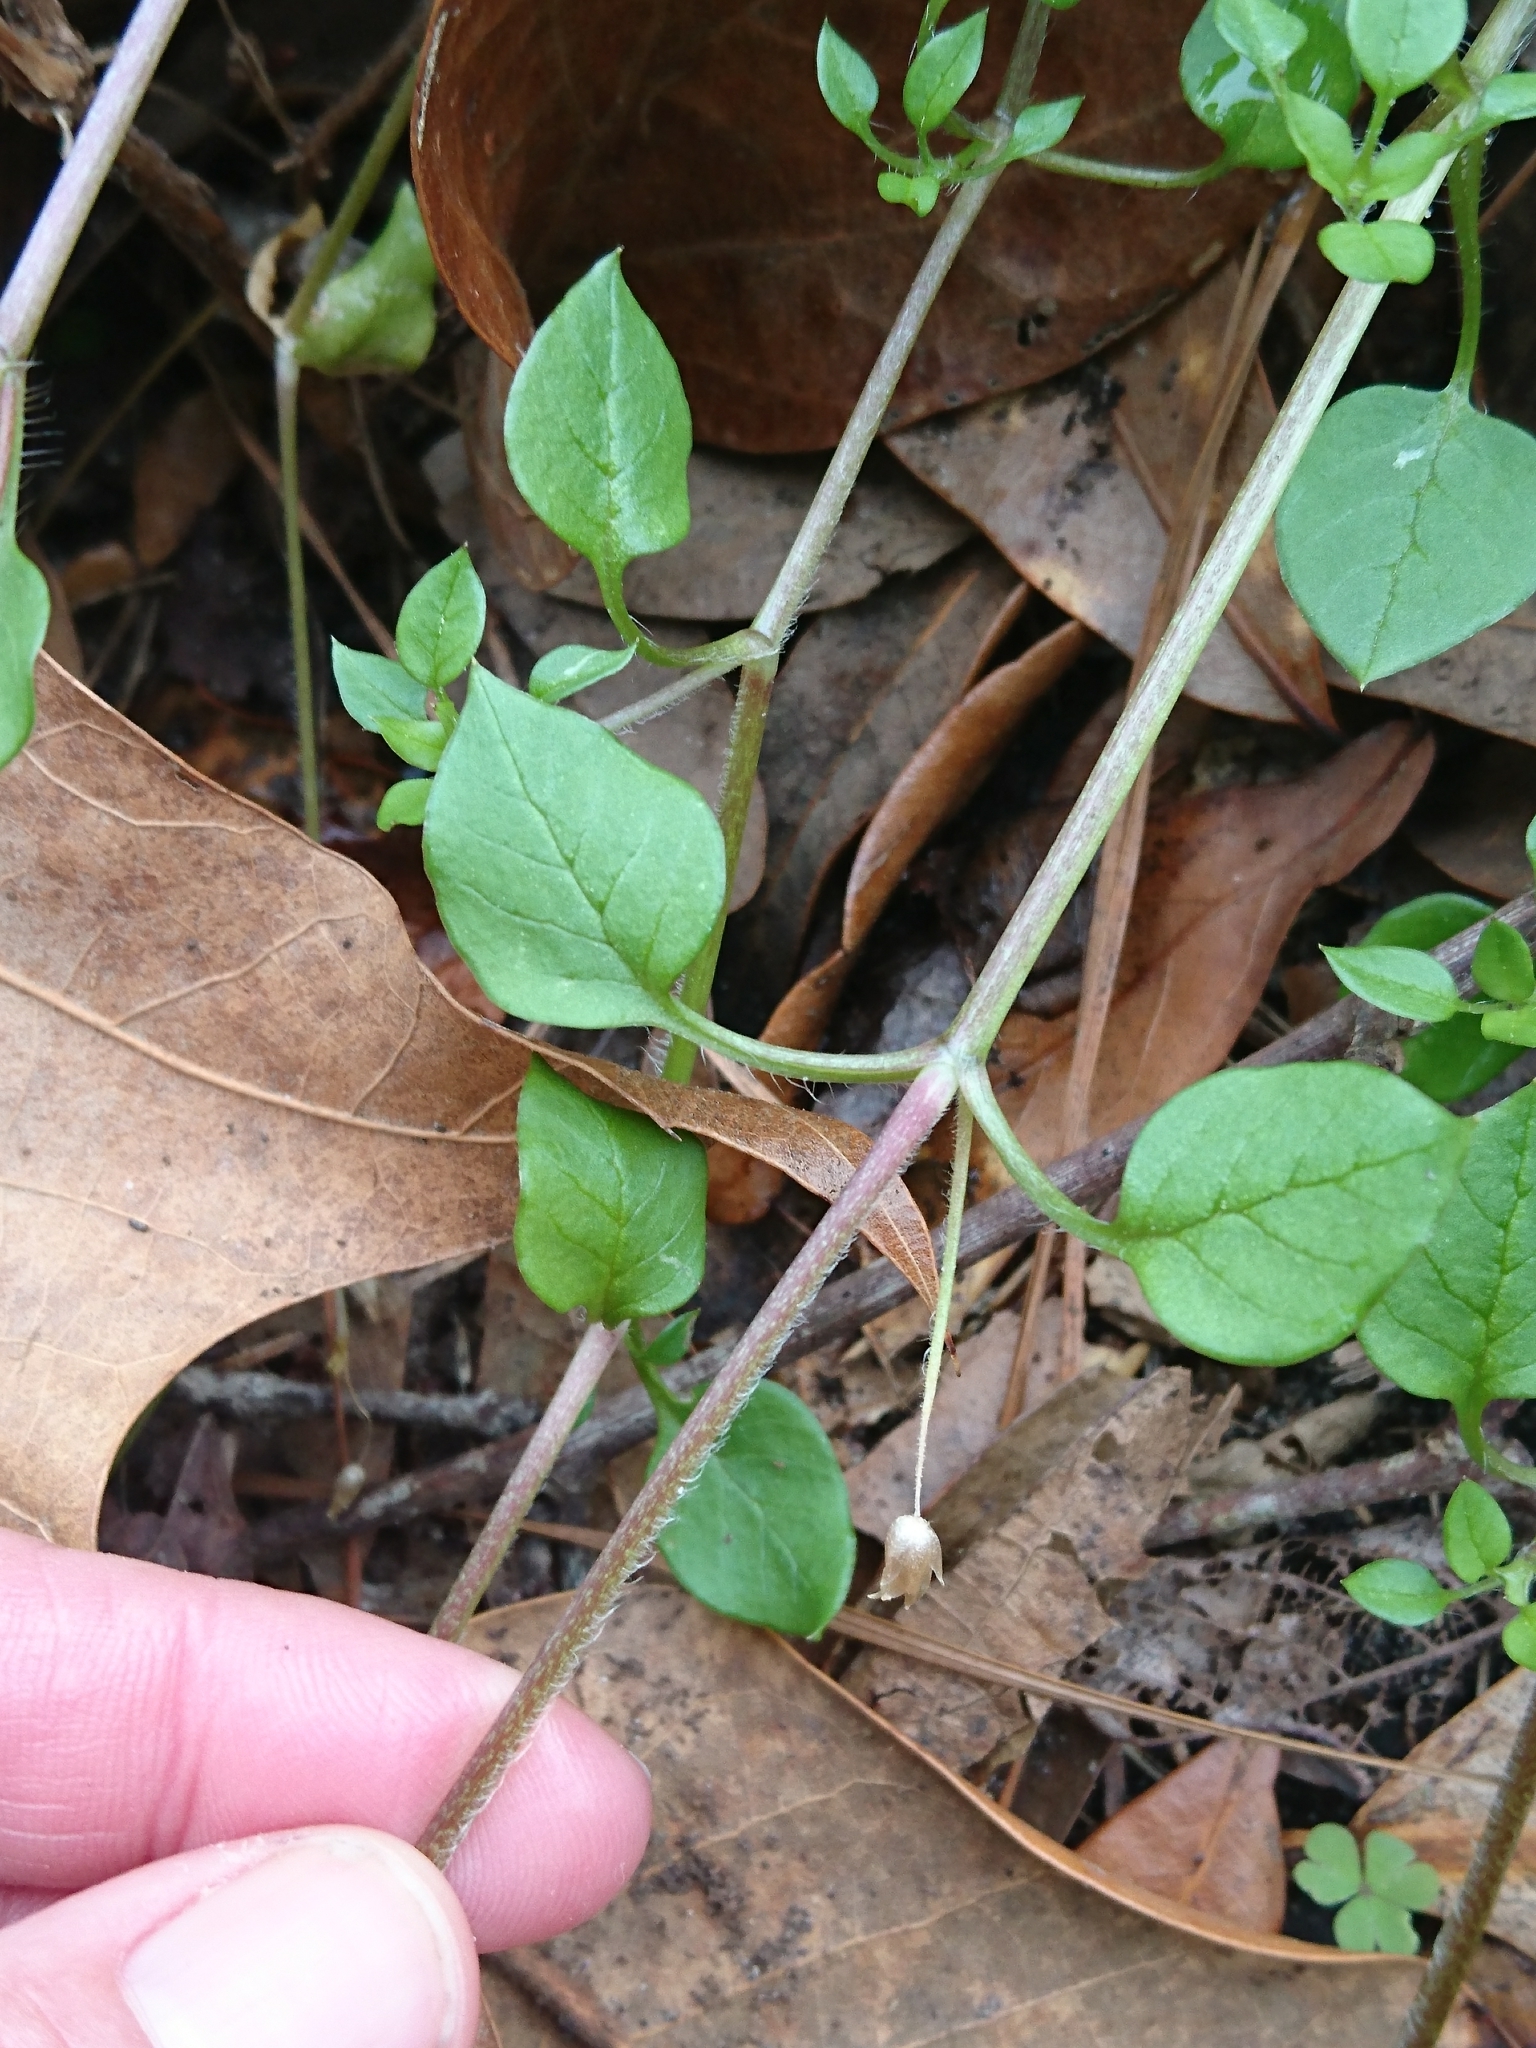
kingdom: Plantae
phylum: Tracheophyta
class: Magnoliopsida
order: Caryophyllales
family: Caryophyllaceae
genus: Stellaria
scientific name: Stellaria media
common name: Common chickweed
